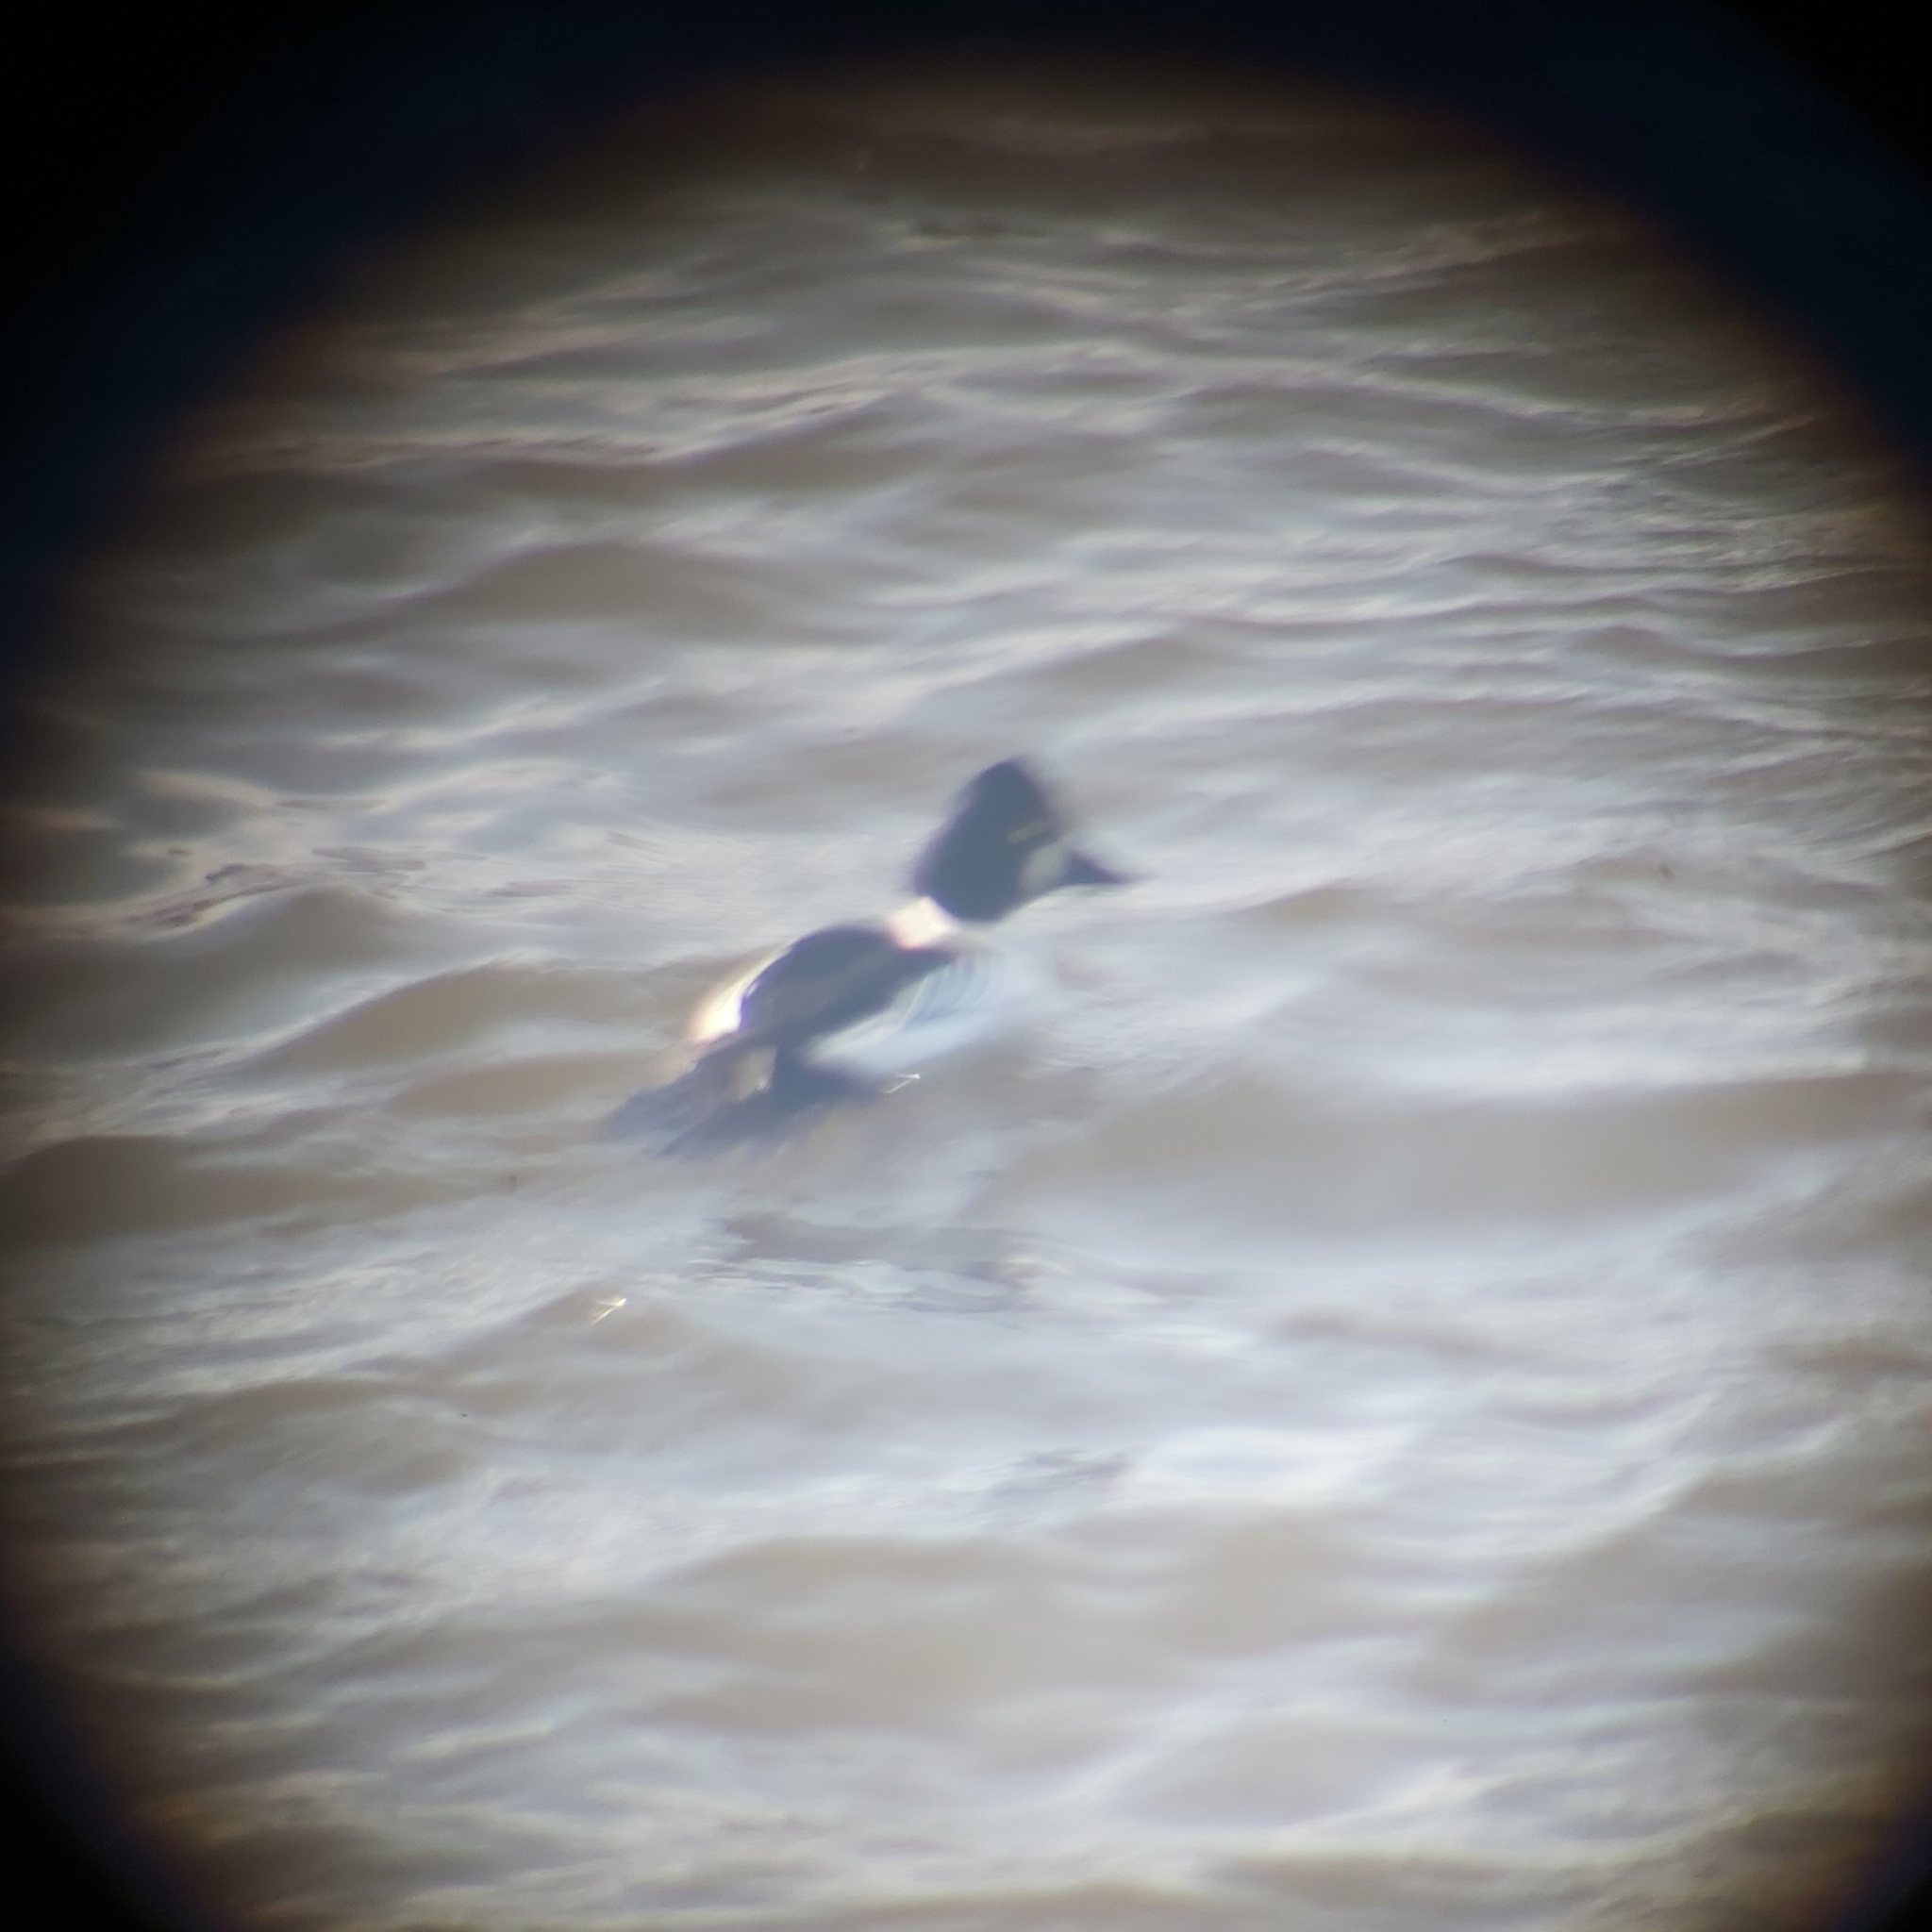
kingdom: Animalia
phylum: Chordata
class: Aves
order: Anseriformes
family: Anatidae
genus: Bucephala
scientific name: Bucephala clangula
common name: Common goldeneye
